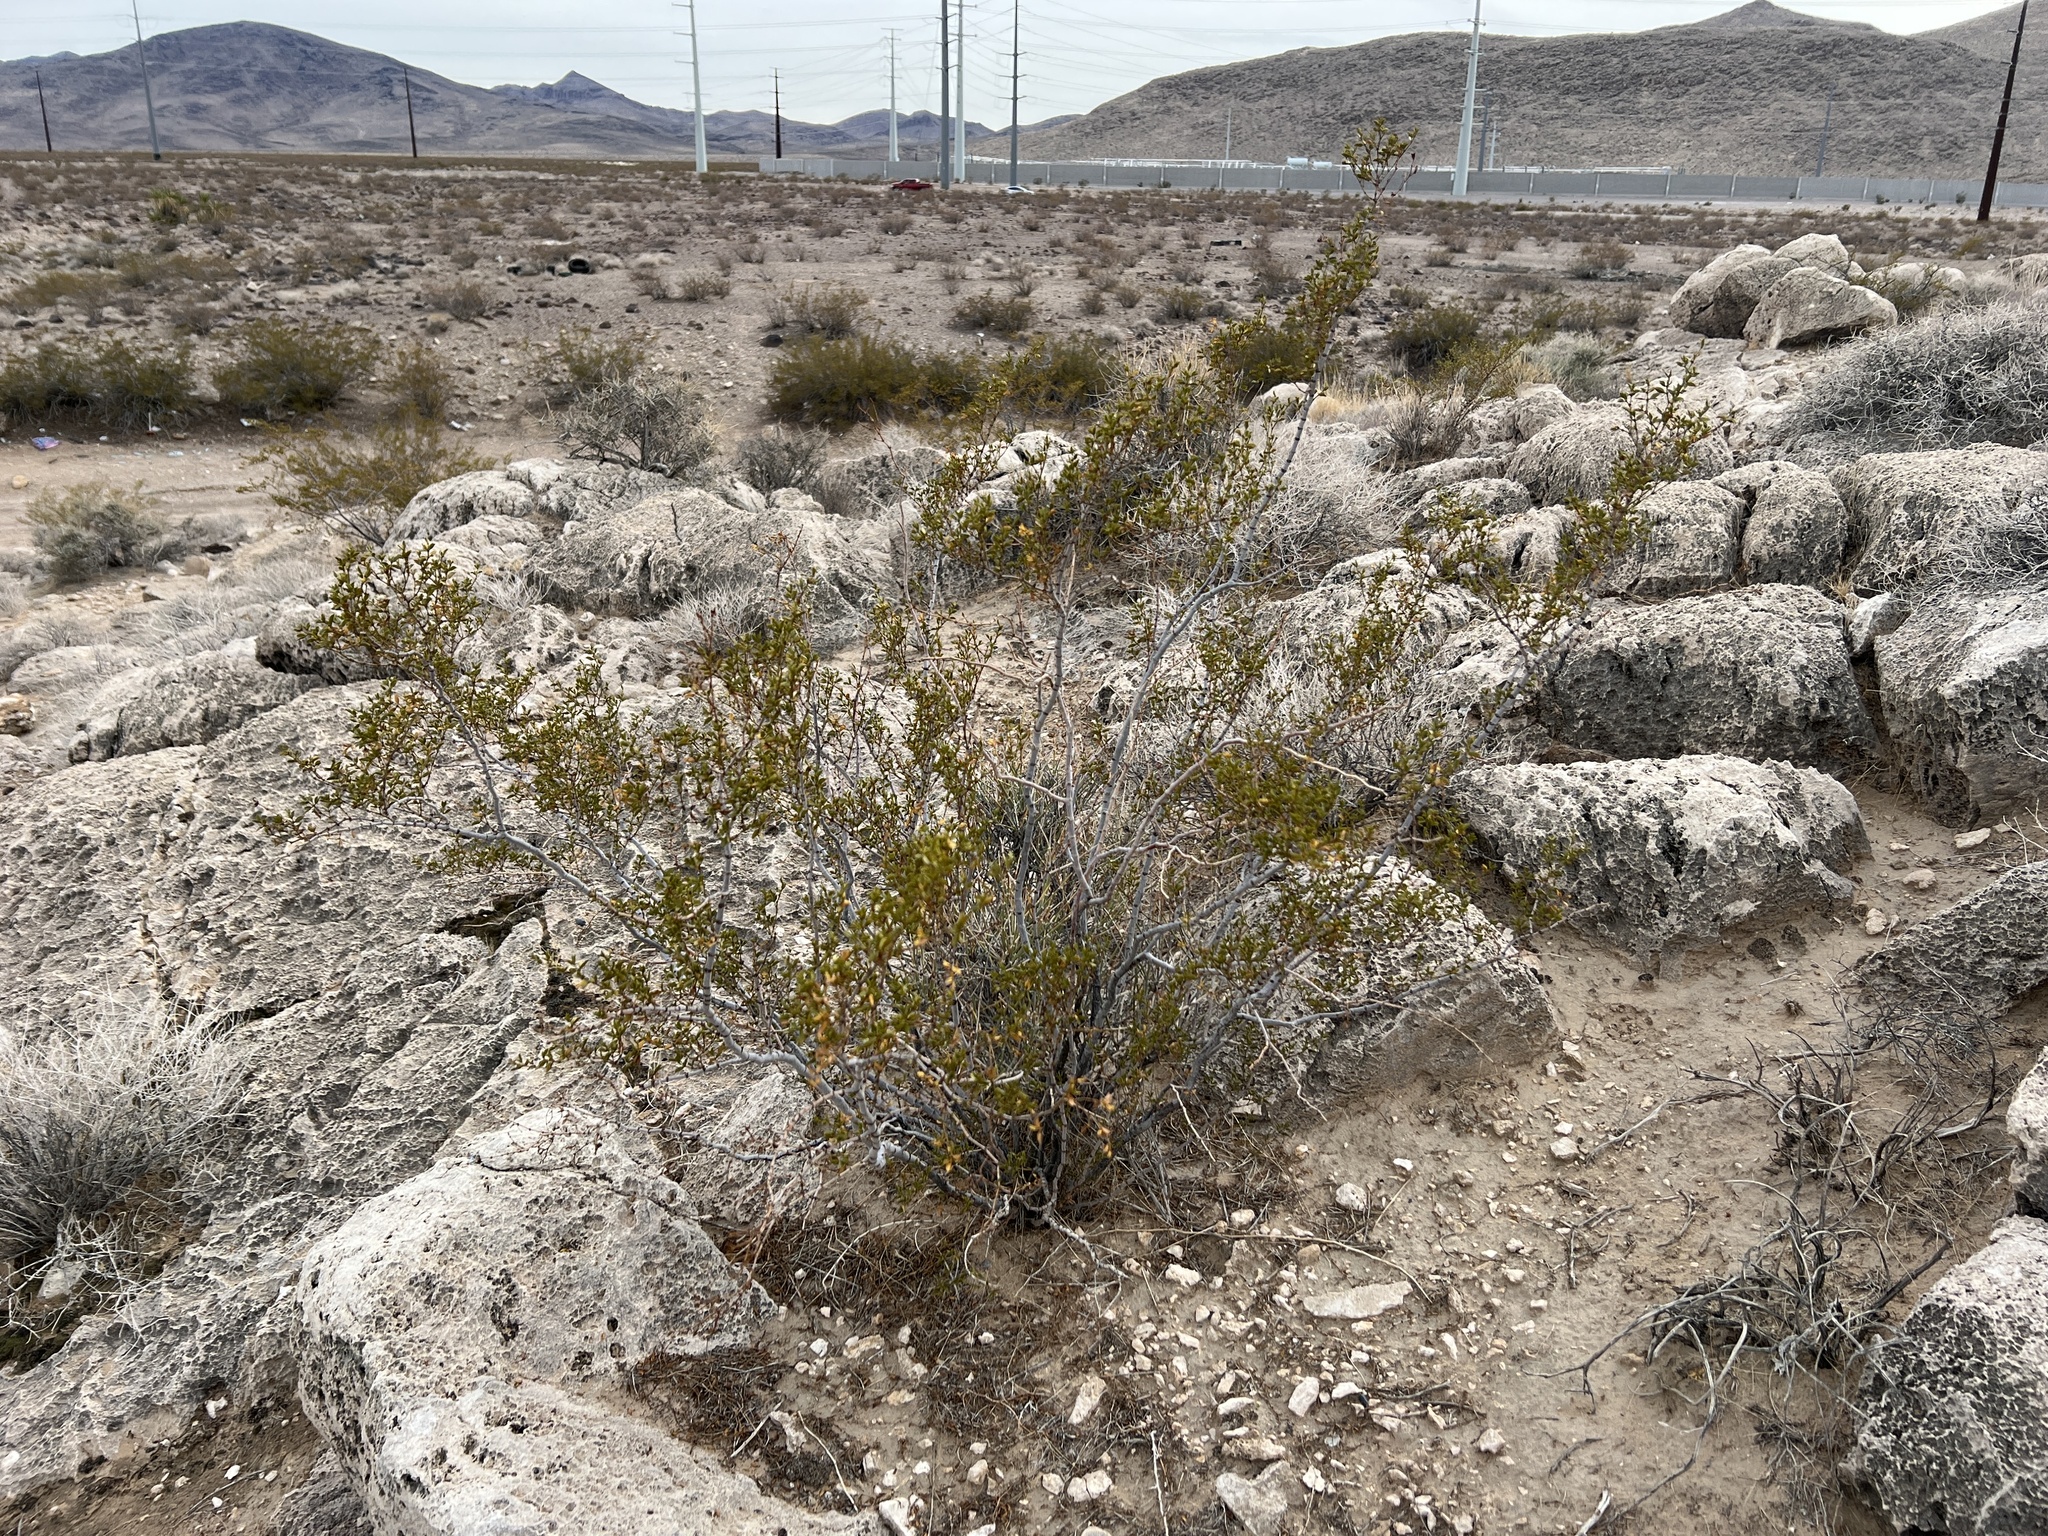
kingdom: Plantae
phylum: Tracheophyta
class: Magnoliopsida
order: Zygophyllales
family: Zygophyllaceae
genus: Larrea
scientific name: Larrea tridentata
